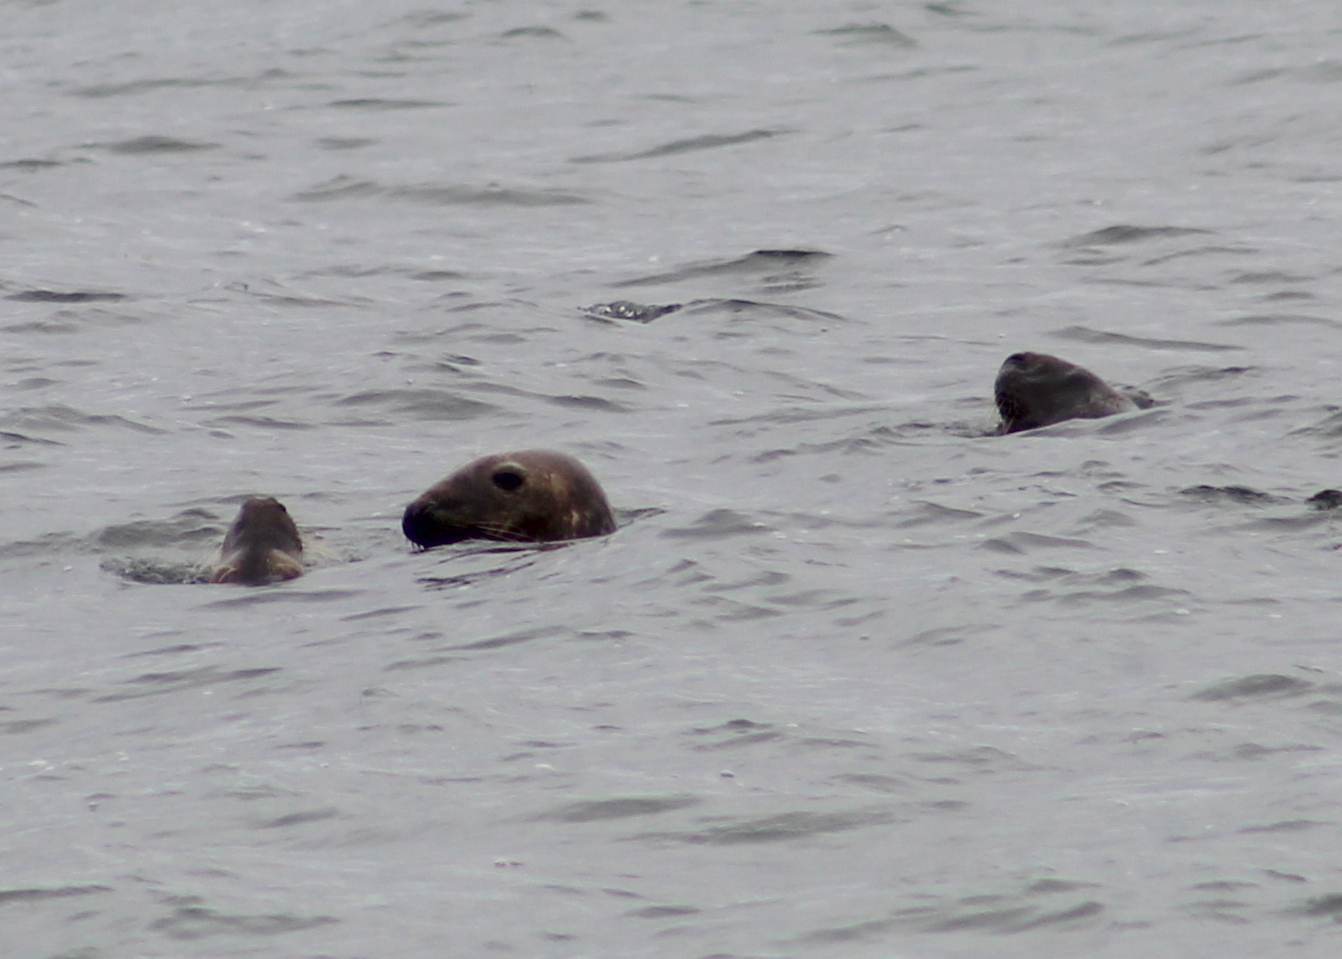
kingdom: Animalia
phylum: Chordata
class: Mammalia
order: Carnivora
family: Phocidae
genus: Halichoerus
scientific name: Halichoerus grypus
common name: Grey seal
